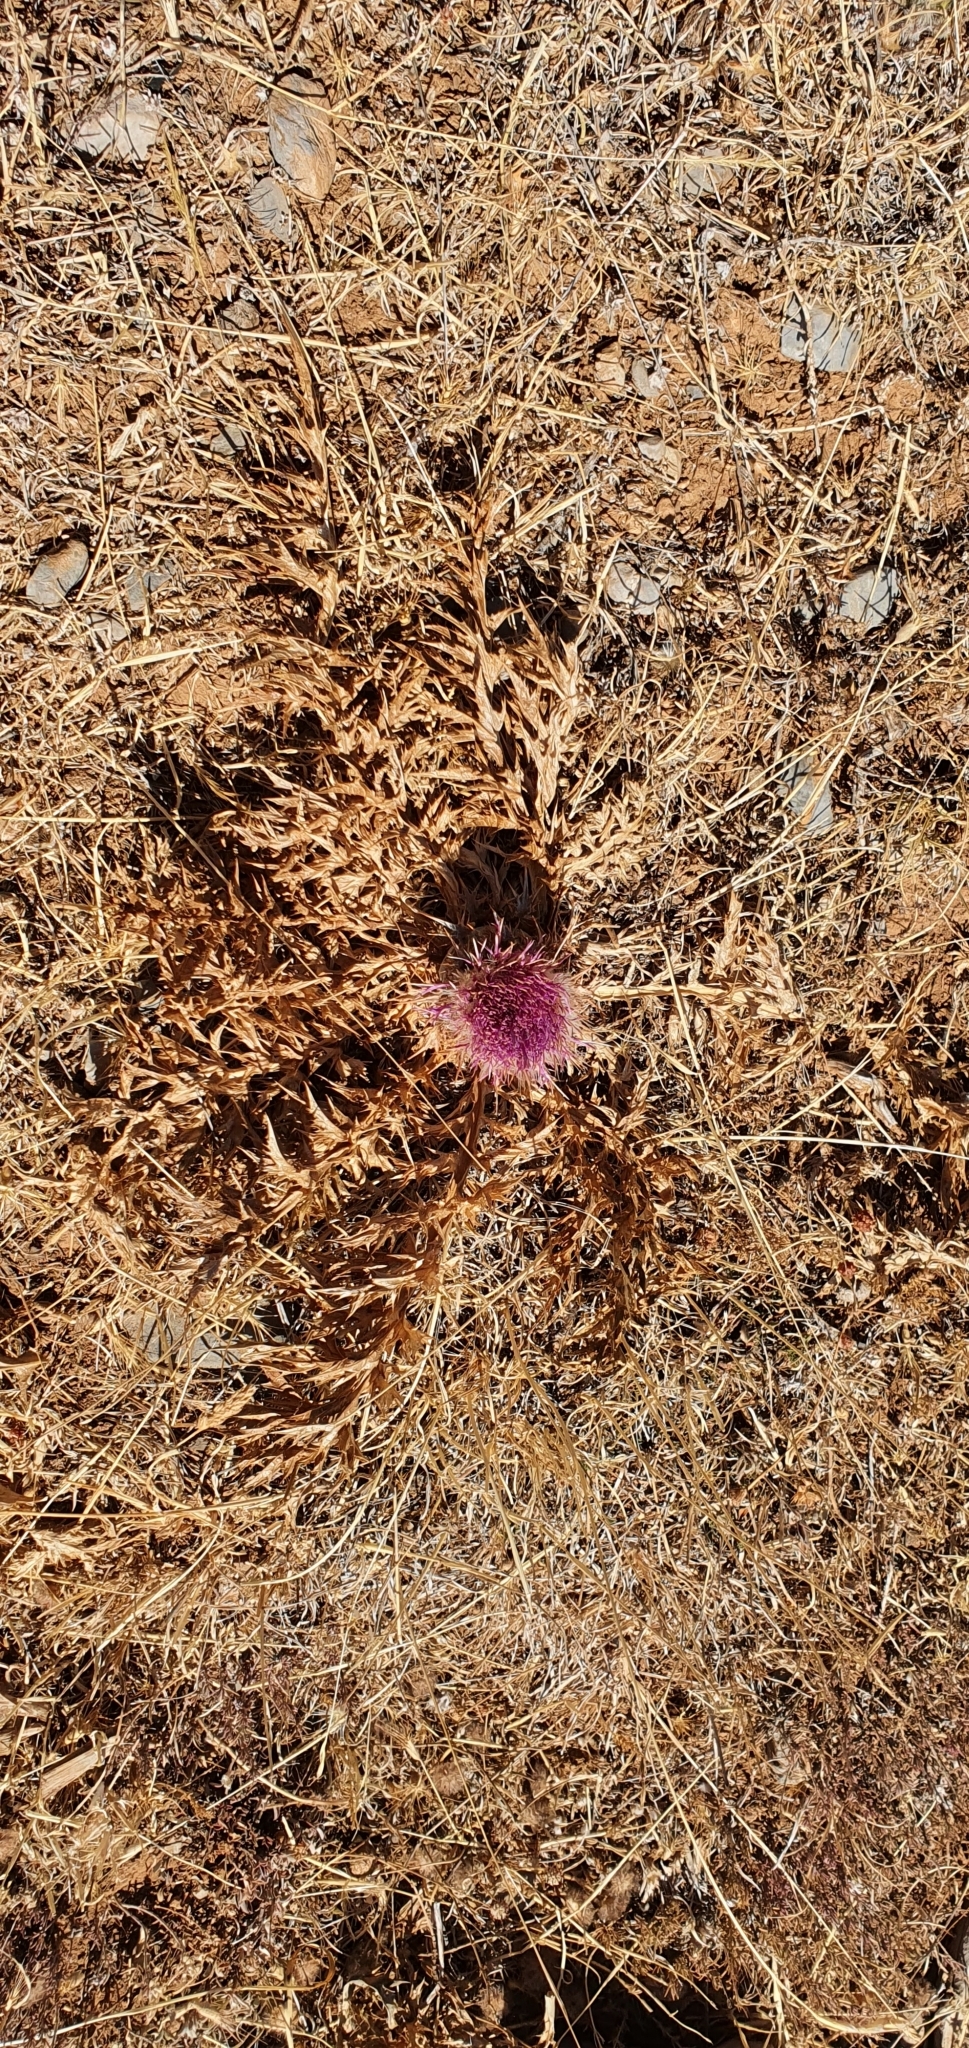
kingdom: Plantae
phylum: Tracheophyta
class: Magnoliopsida
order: Asterales
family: Asteraceae
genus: Chamaeleon
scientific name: Chamaeleon gummifer
